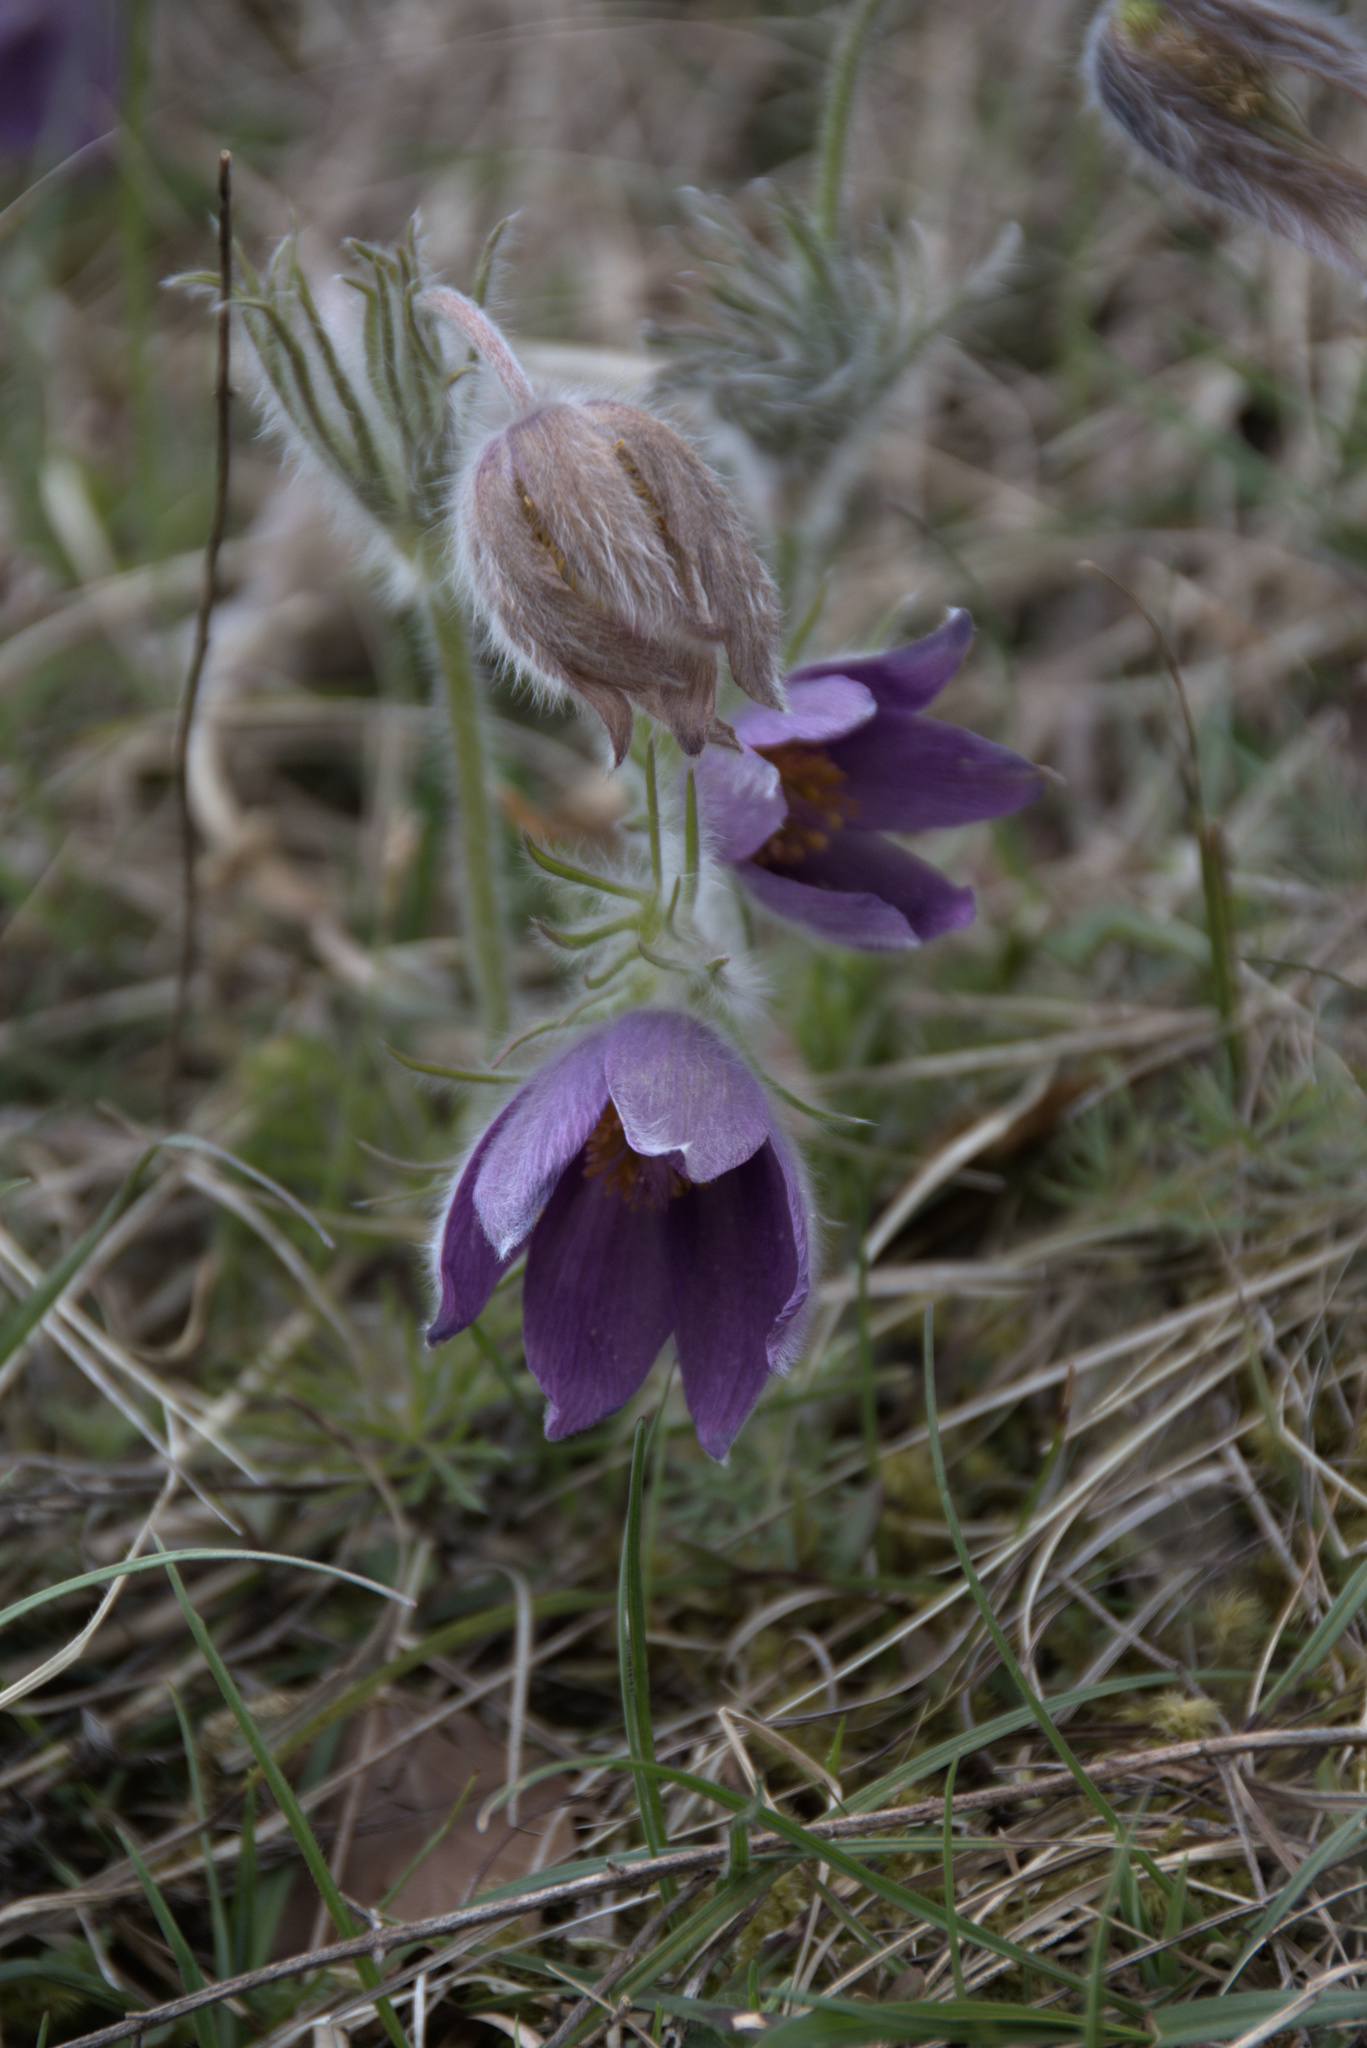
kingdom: Plantae
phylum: Tracheophyta
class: Magnoliopsida
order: Ranunculales
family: Ranunculaceae
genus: Pulsatilla
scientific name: Pulsatilla vulgaris
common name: Pasqueflower
